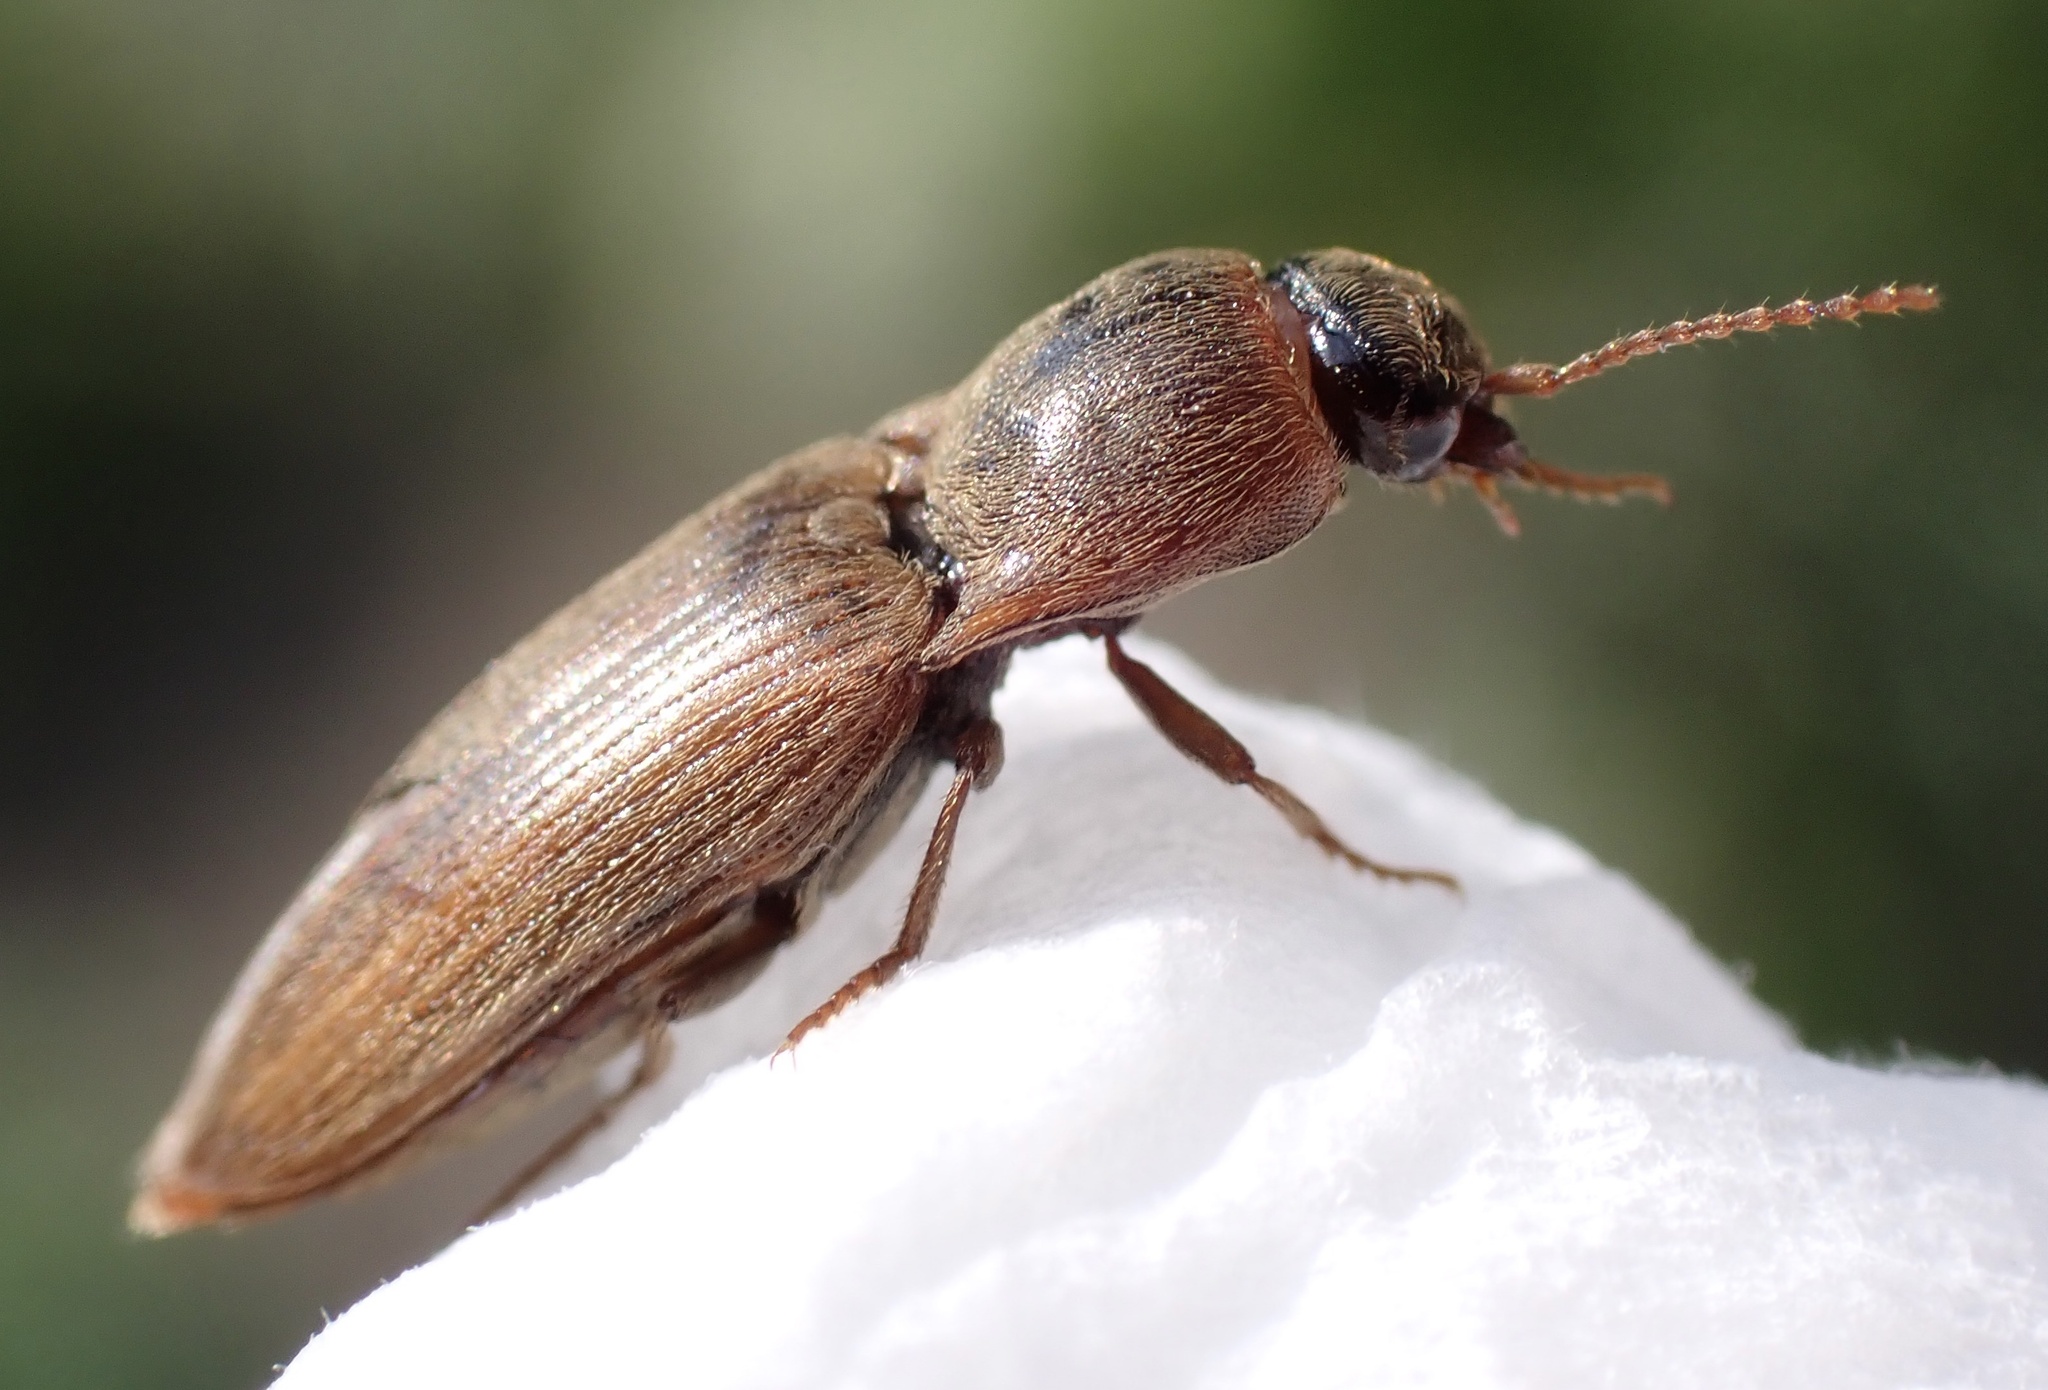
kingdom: Animalia
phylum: Arthropoda
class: Insecta
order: Coleoptera
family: Elateridae
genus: Agriotes
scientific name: Agriotes lineatus
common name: Lined click beetle
